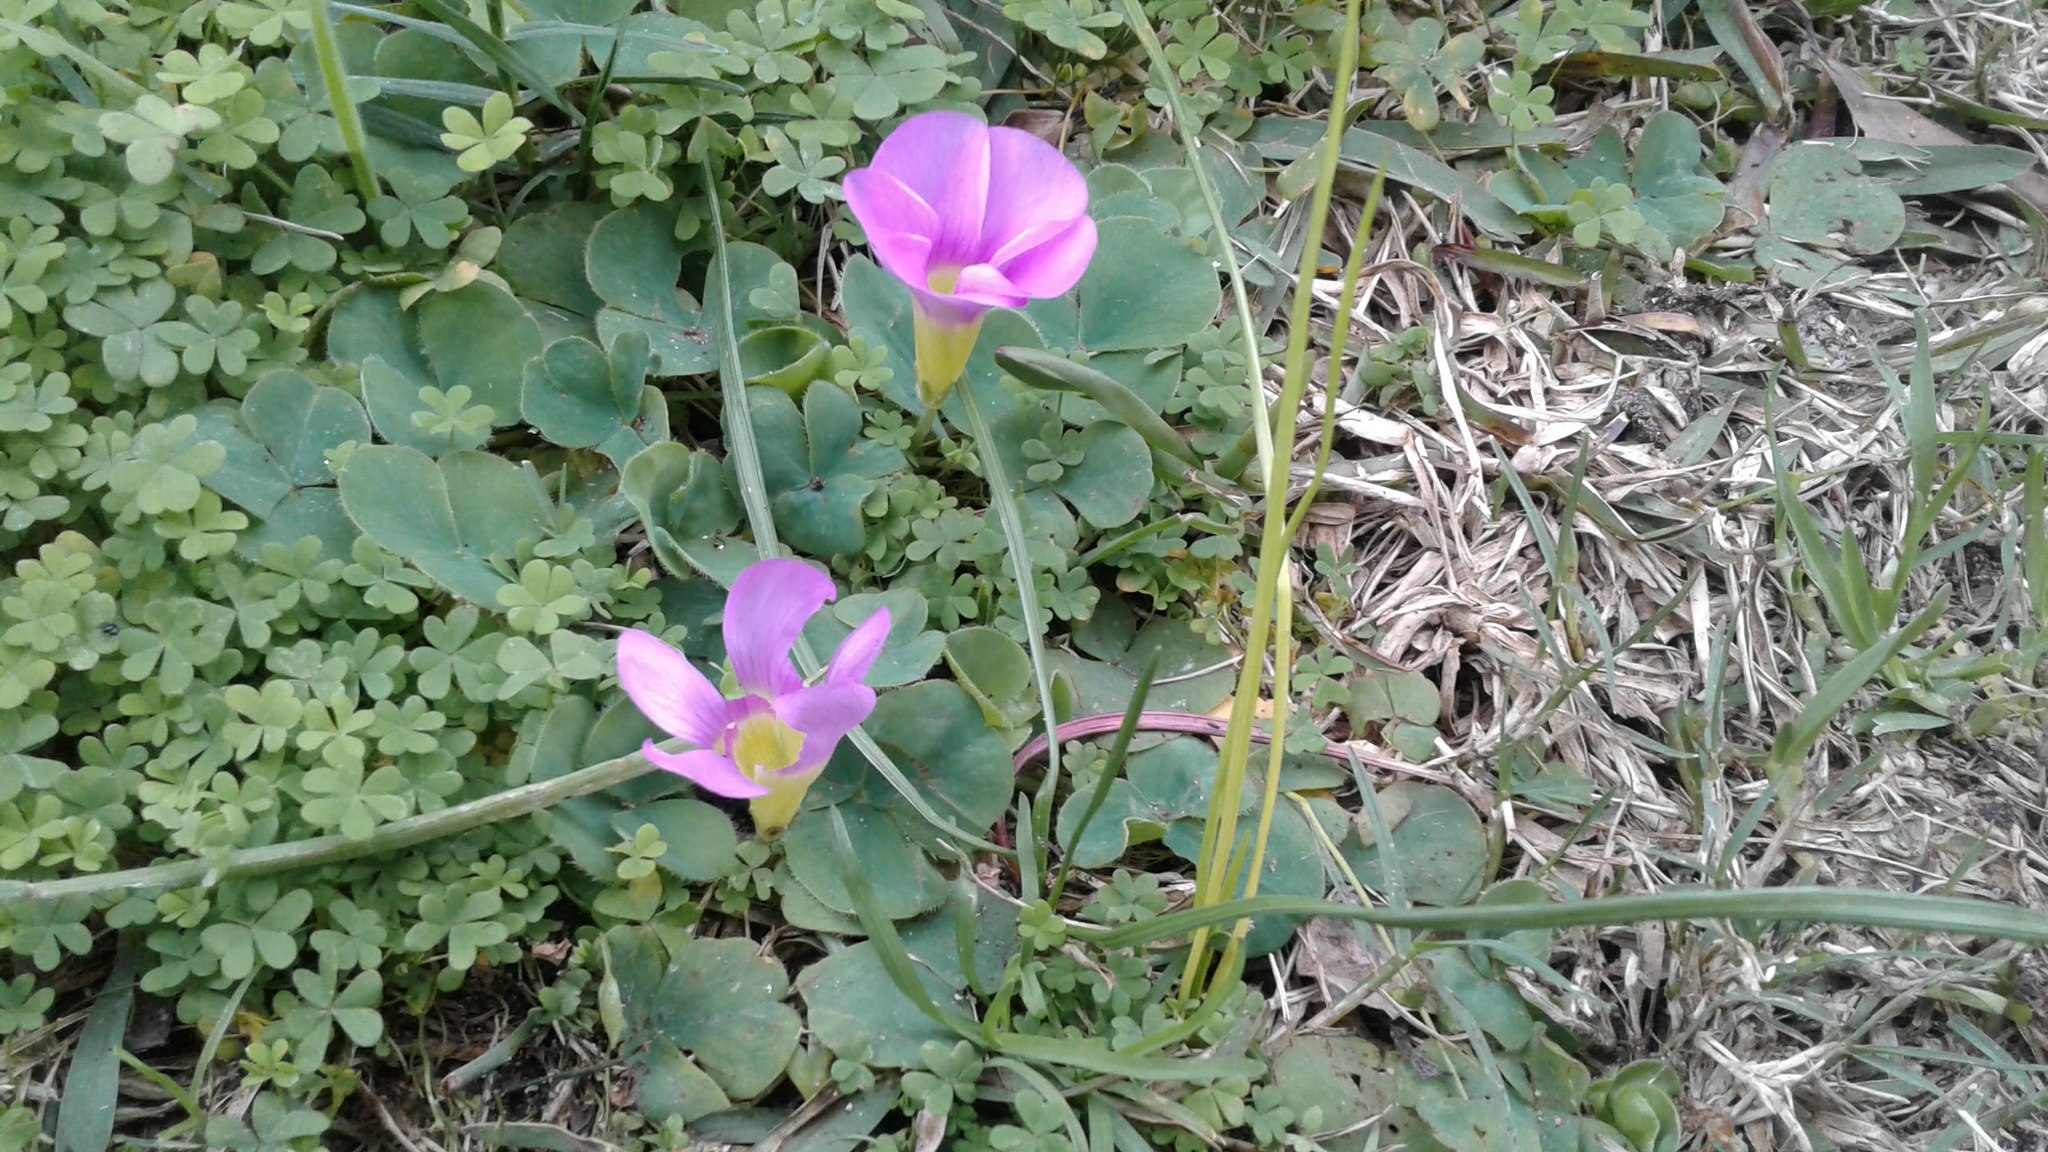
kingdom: Plantae
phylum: Tracheophyta
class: Magnoliopsida
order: Oxalidales
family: Oxalidaceae
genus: Oxalis
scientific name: Oxalis purpurea
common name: Purple woodsorrel
